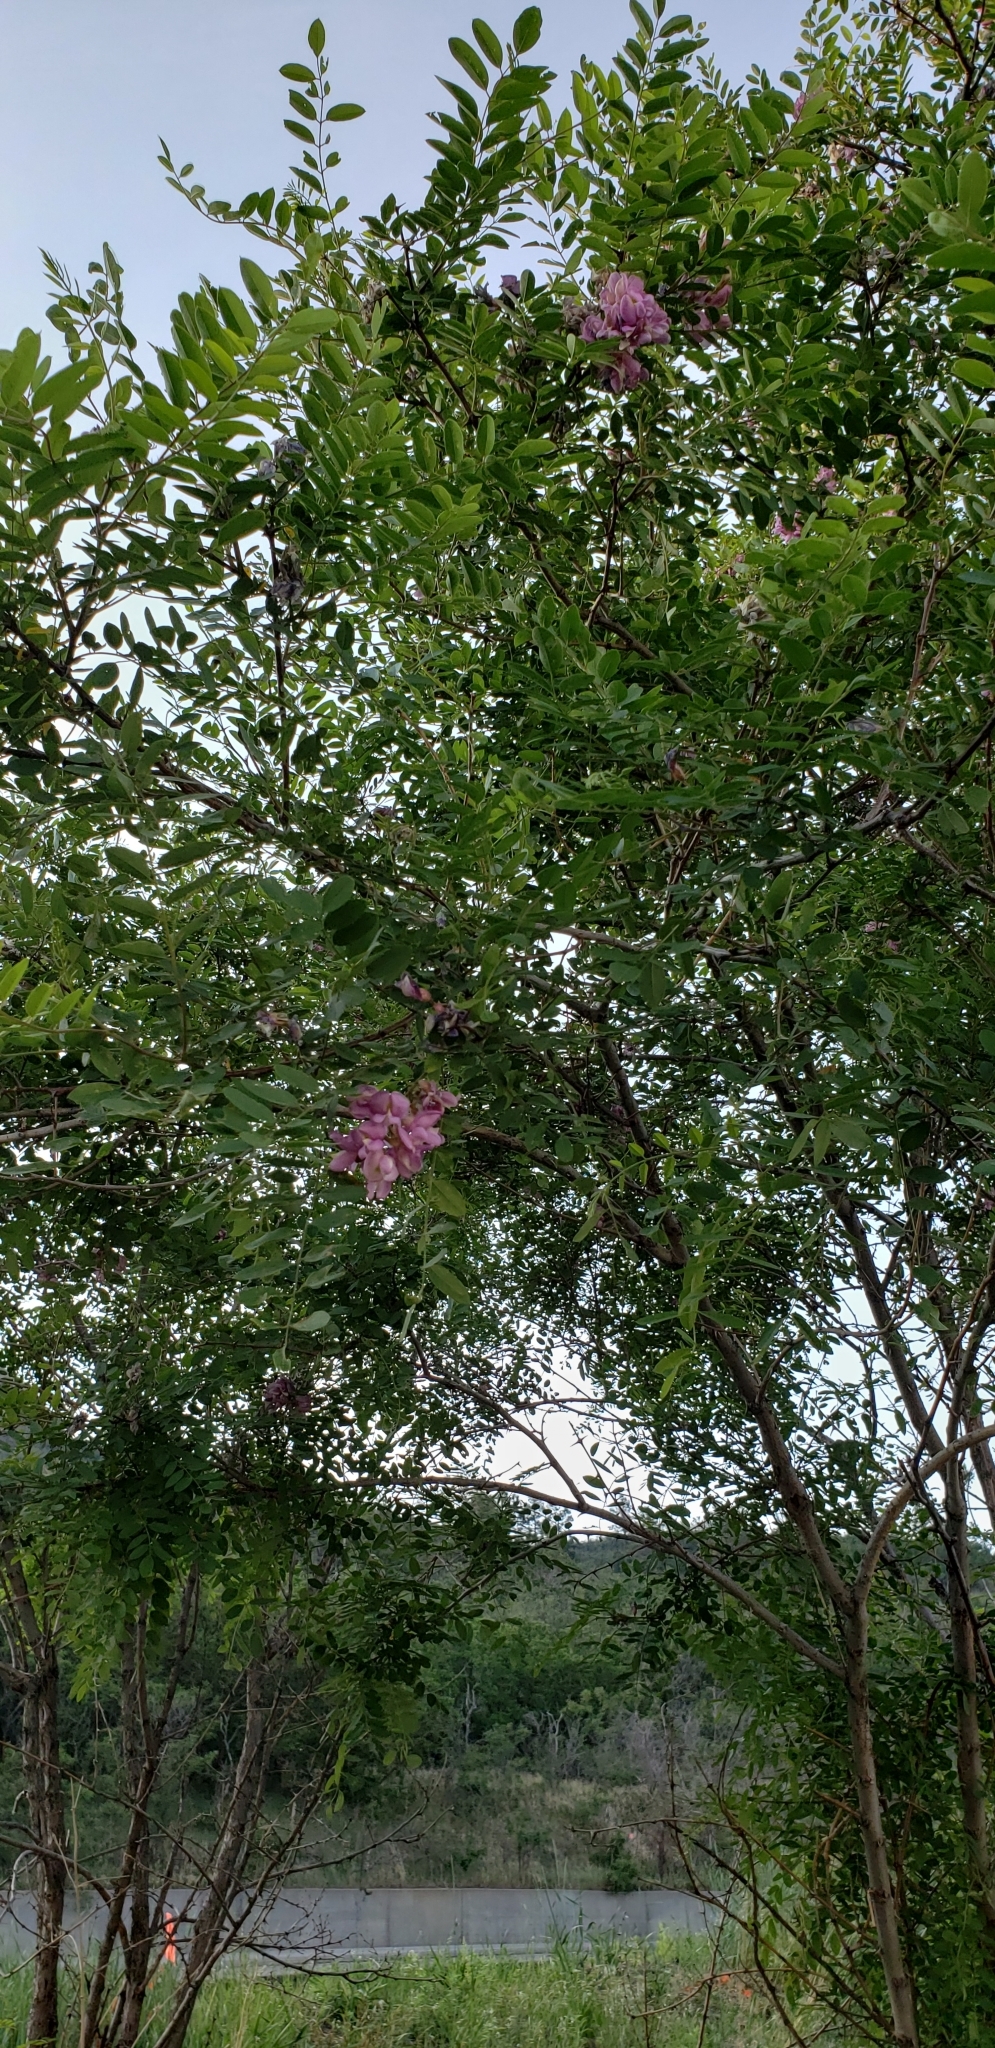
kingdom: Plantae
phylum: Tracheophyta
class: Magnoliopsida
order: Fabales
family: Fabaceae
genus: Robinia
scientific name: Robinia neomexicana
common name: New mexico locust
